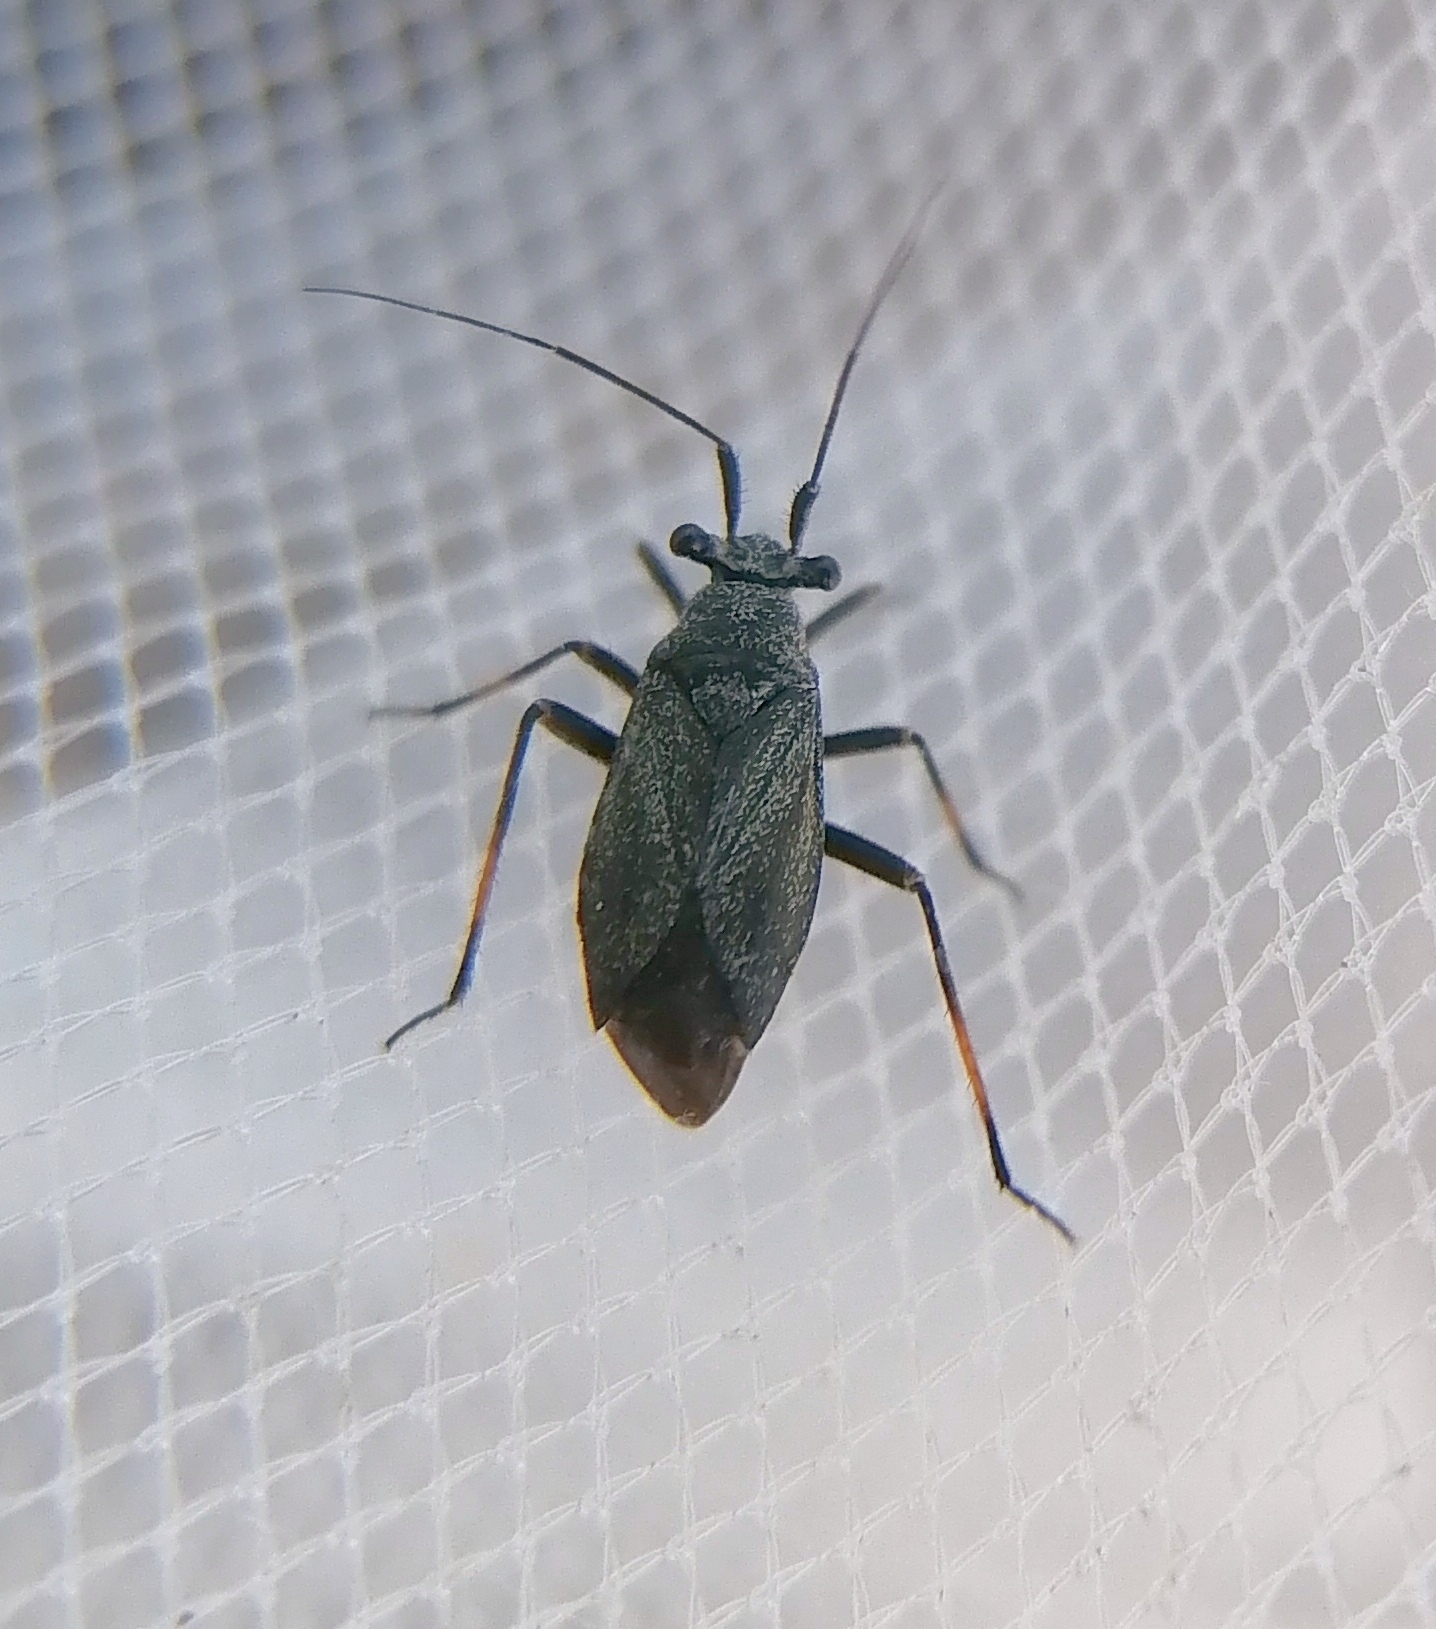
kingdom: Animalia
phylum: Arthropoda
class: Insecta
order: Hemiptera
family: Miridae
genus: Labops
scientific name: Labops sahlbergii
